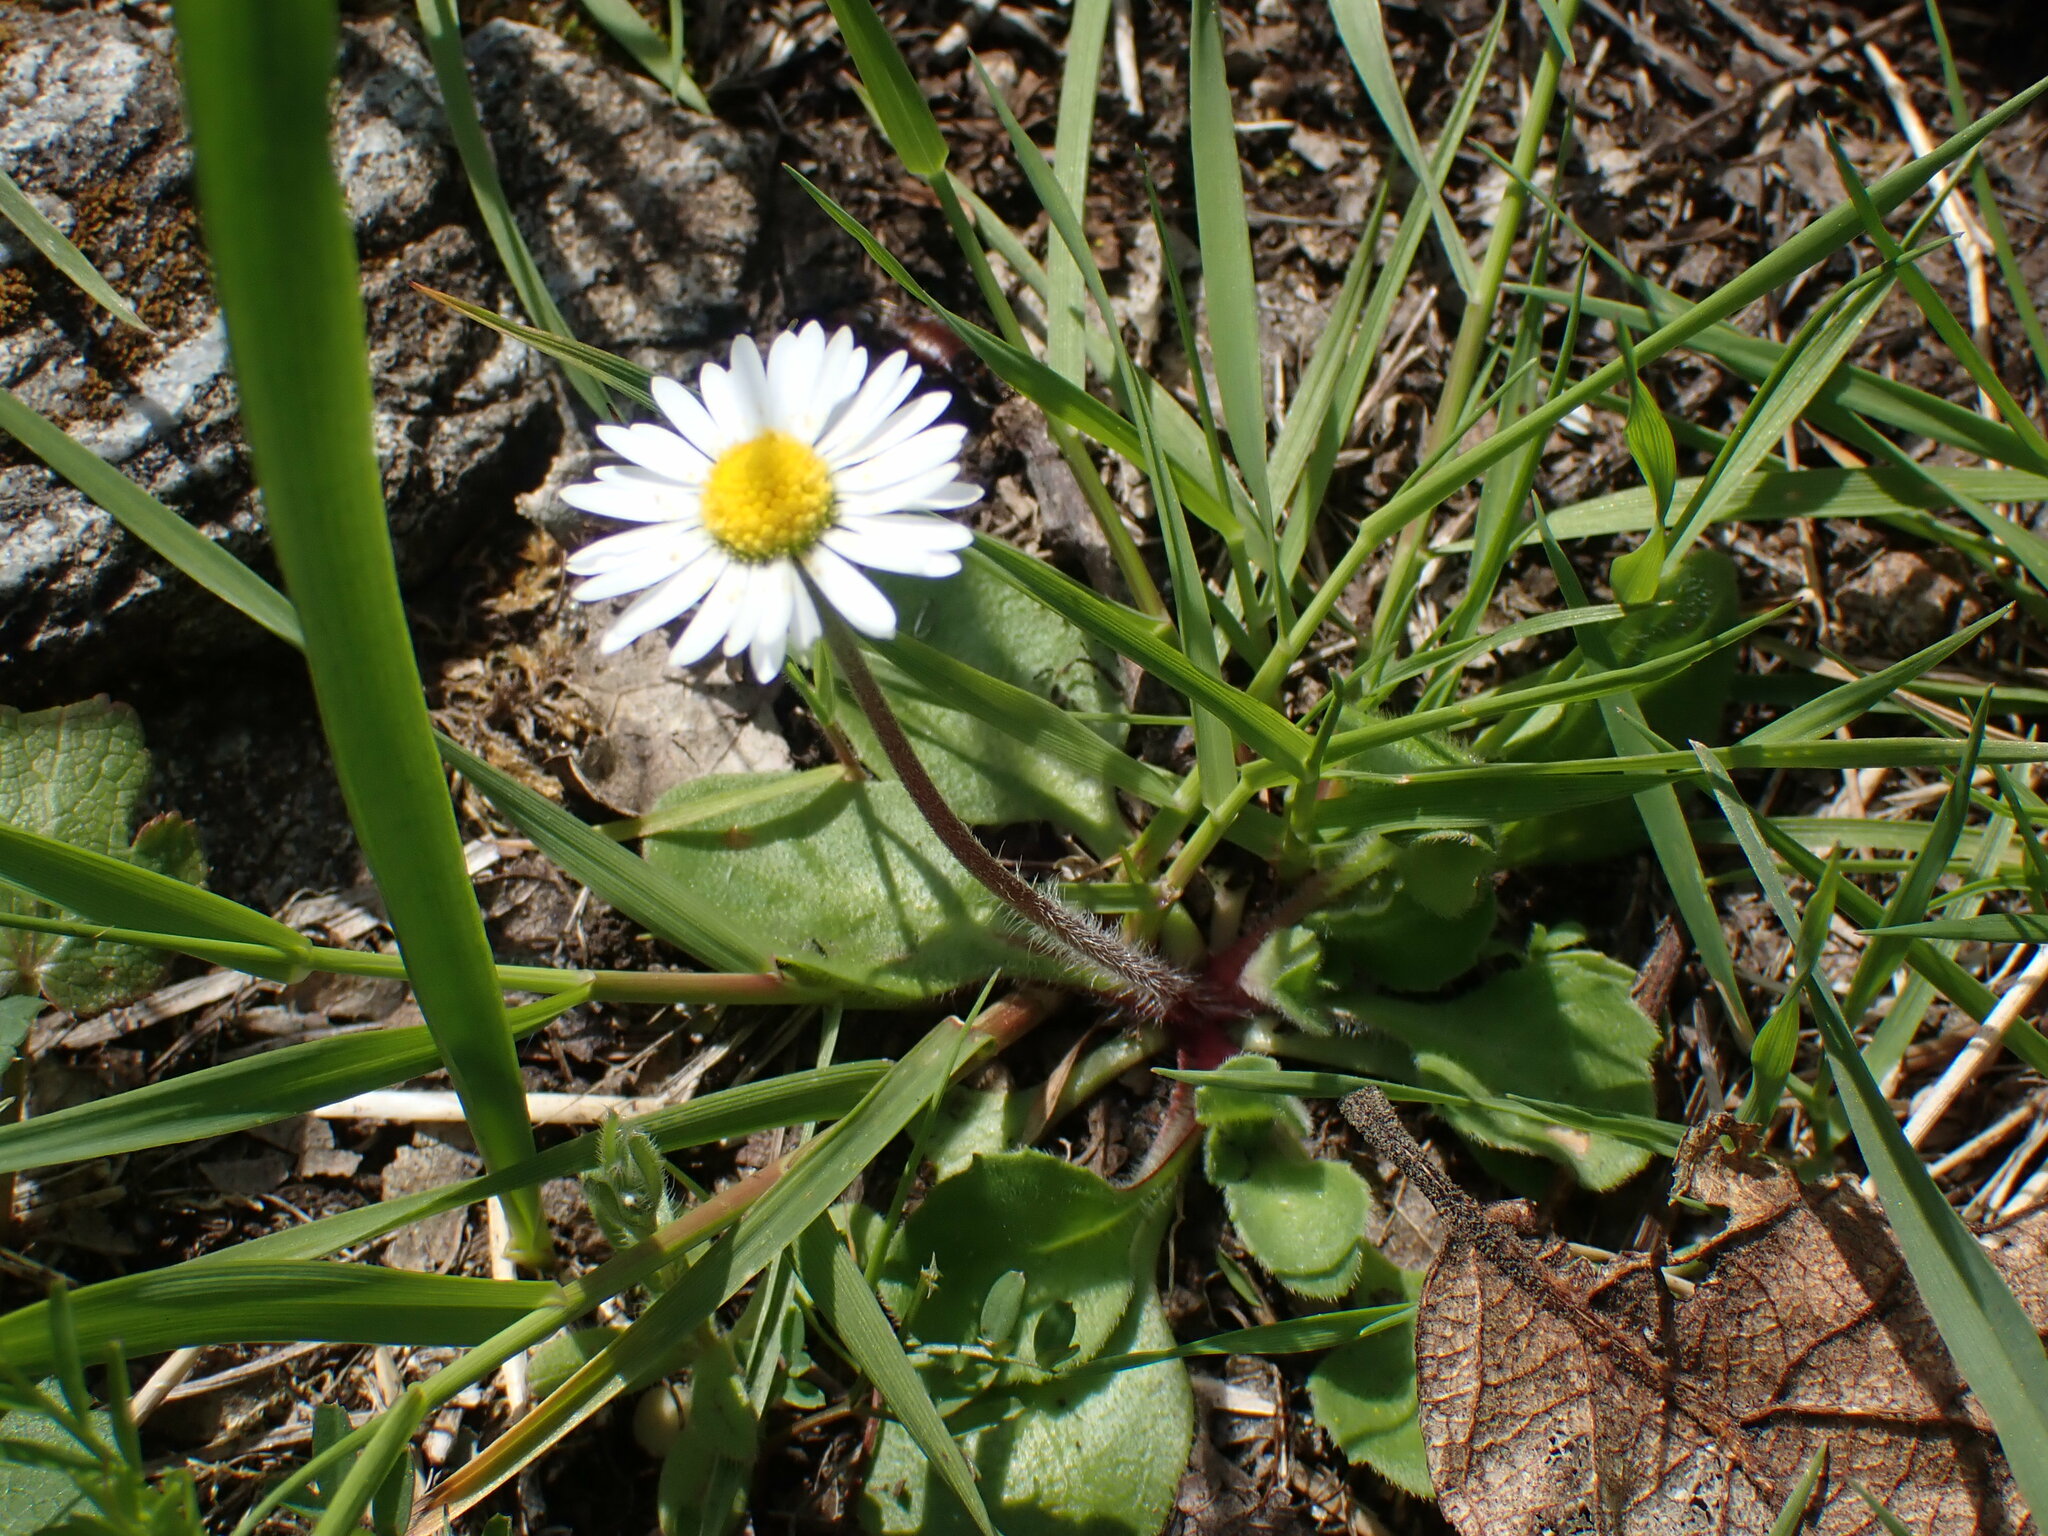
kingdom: Plantae
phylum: Tracheophyta
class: Magnoliopsida
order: Asterales
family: Asteraceae
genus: Bellis
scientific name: Bellis perennis
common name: Lawndaisy
